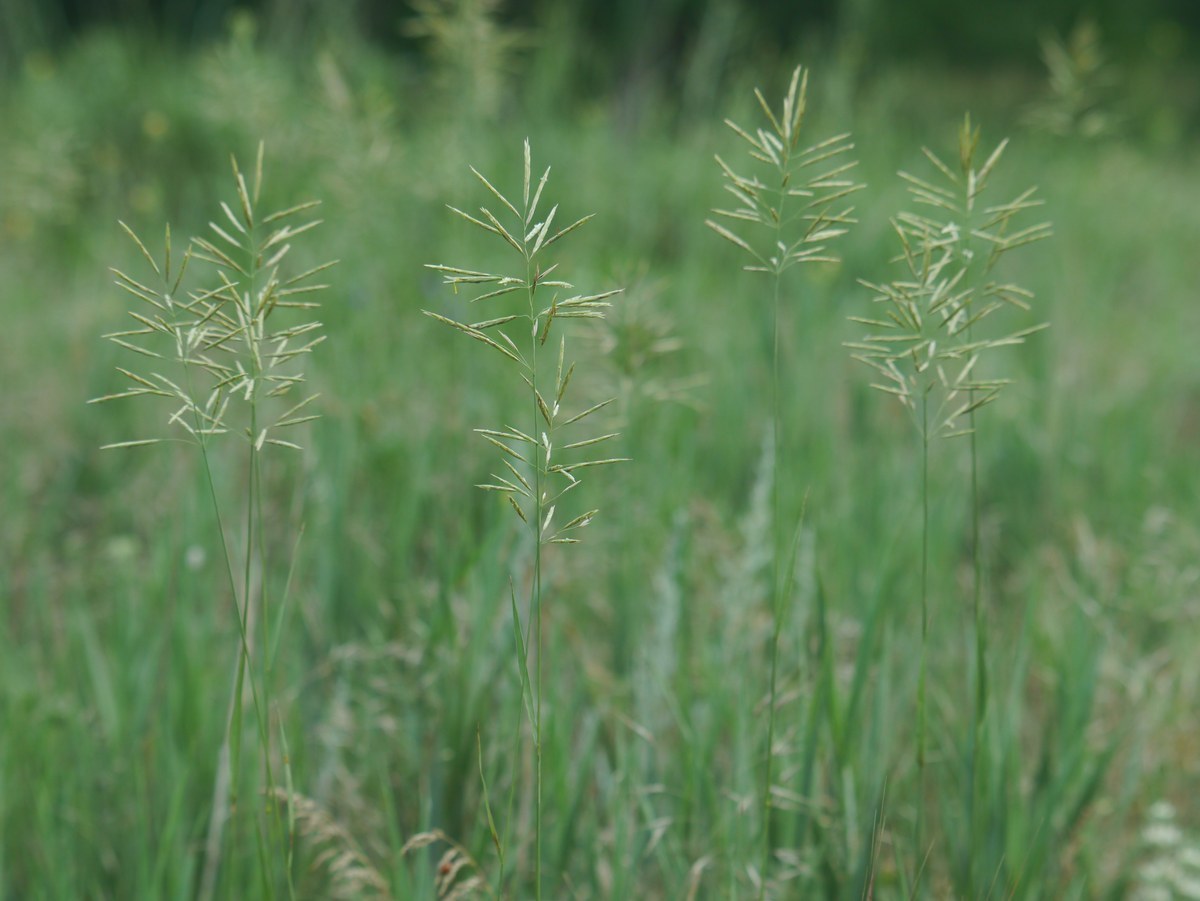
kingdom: Plantae
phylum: Tracheophyta
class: Liliopsida
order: Poales
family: Poaceae
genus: Bromus
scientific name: Bromus inermis
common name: Smooth brome
